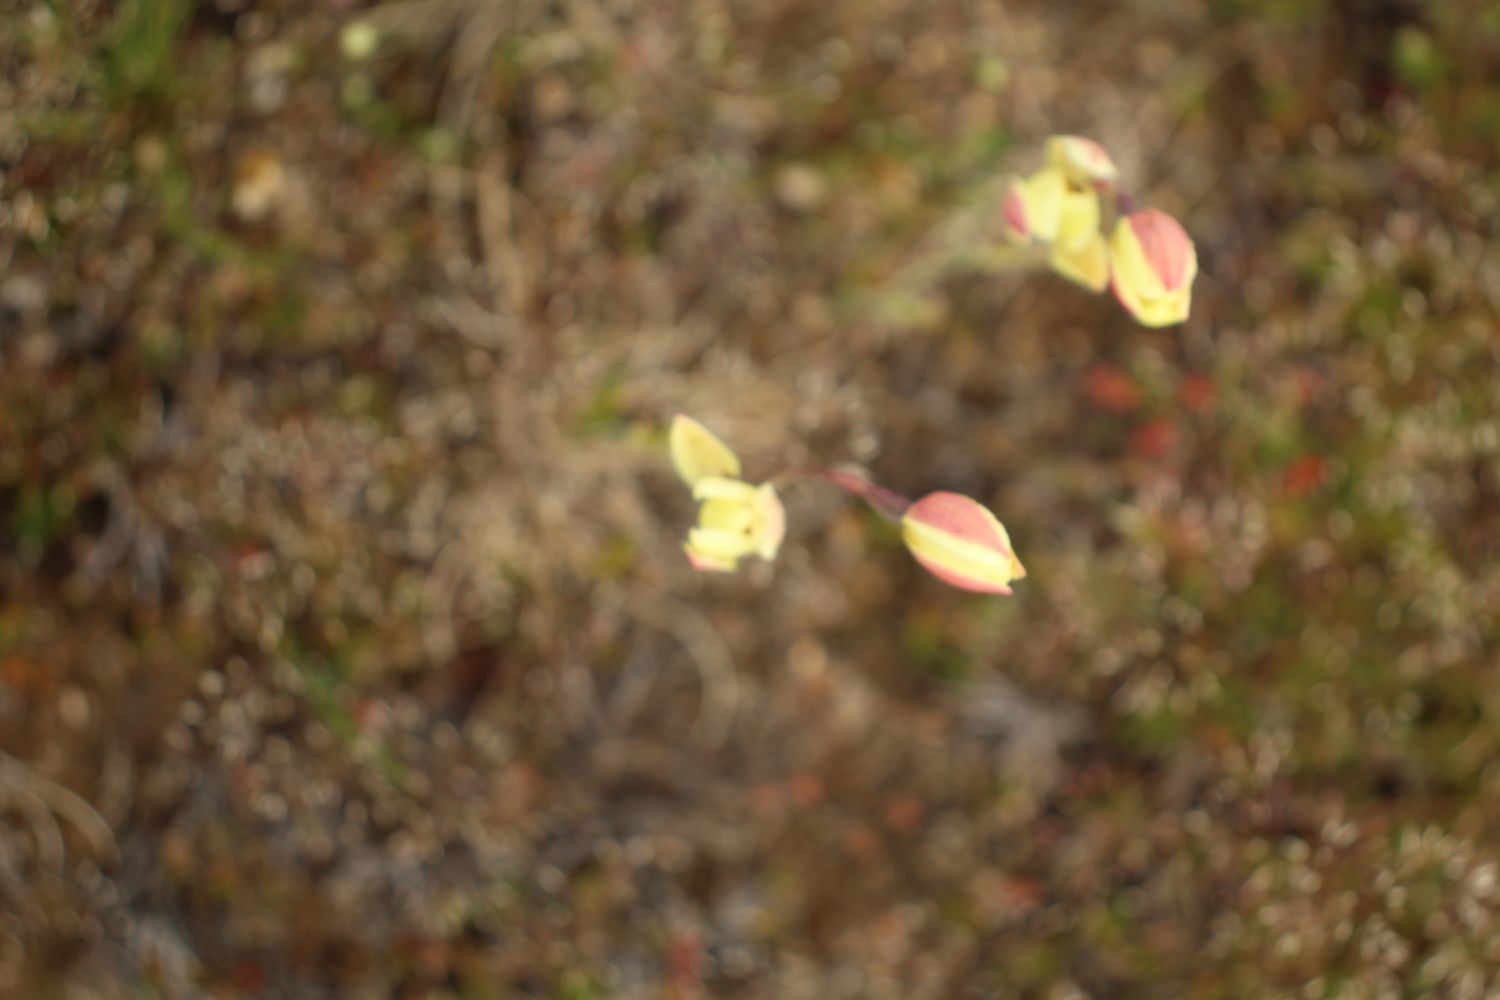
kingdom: Plantae
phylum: Tracheophyta
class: Liliopsida
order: Asparagales
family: Orchidaceae
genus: Thelymitra
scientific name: Thelymitra antennifera
